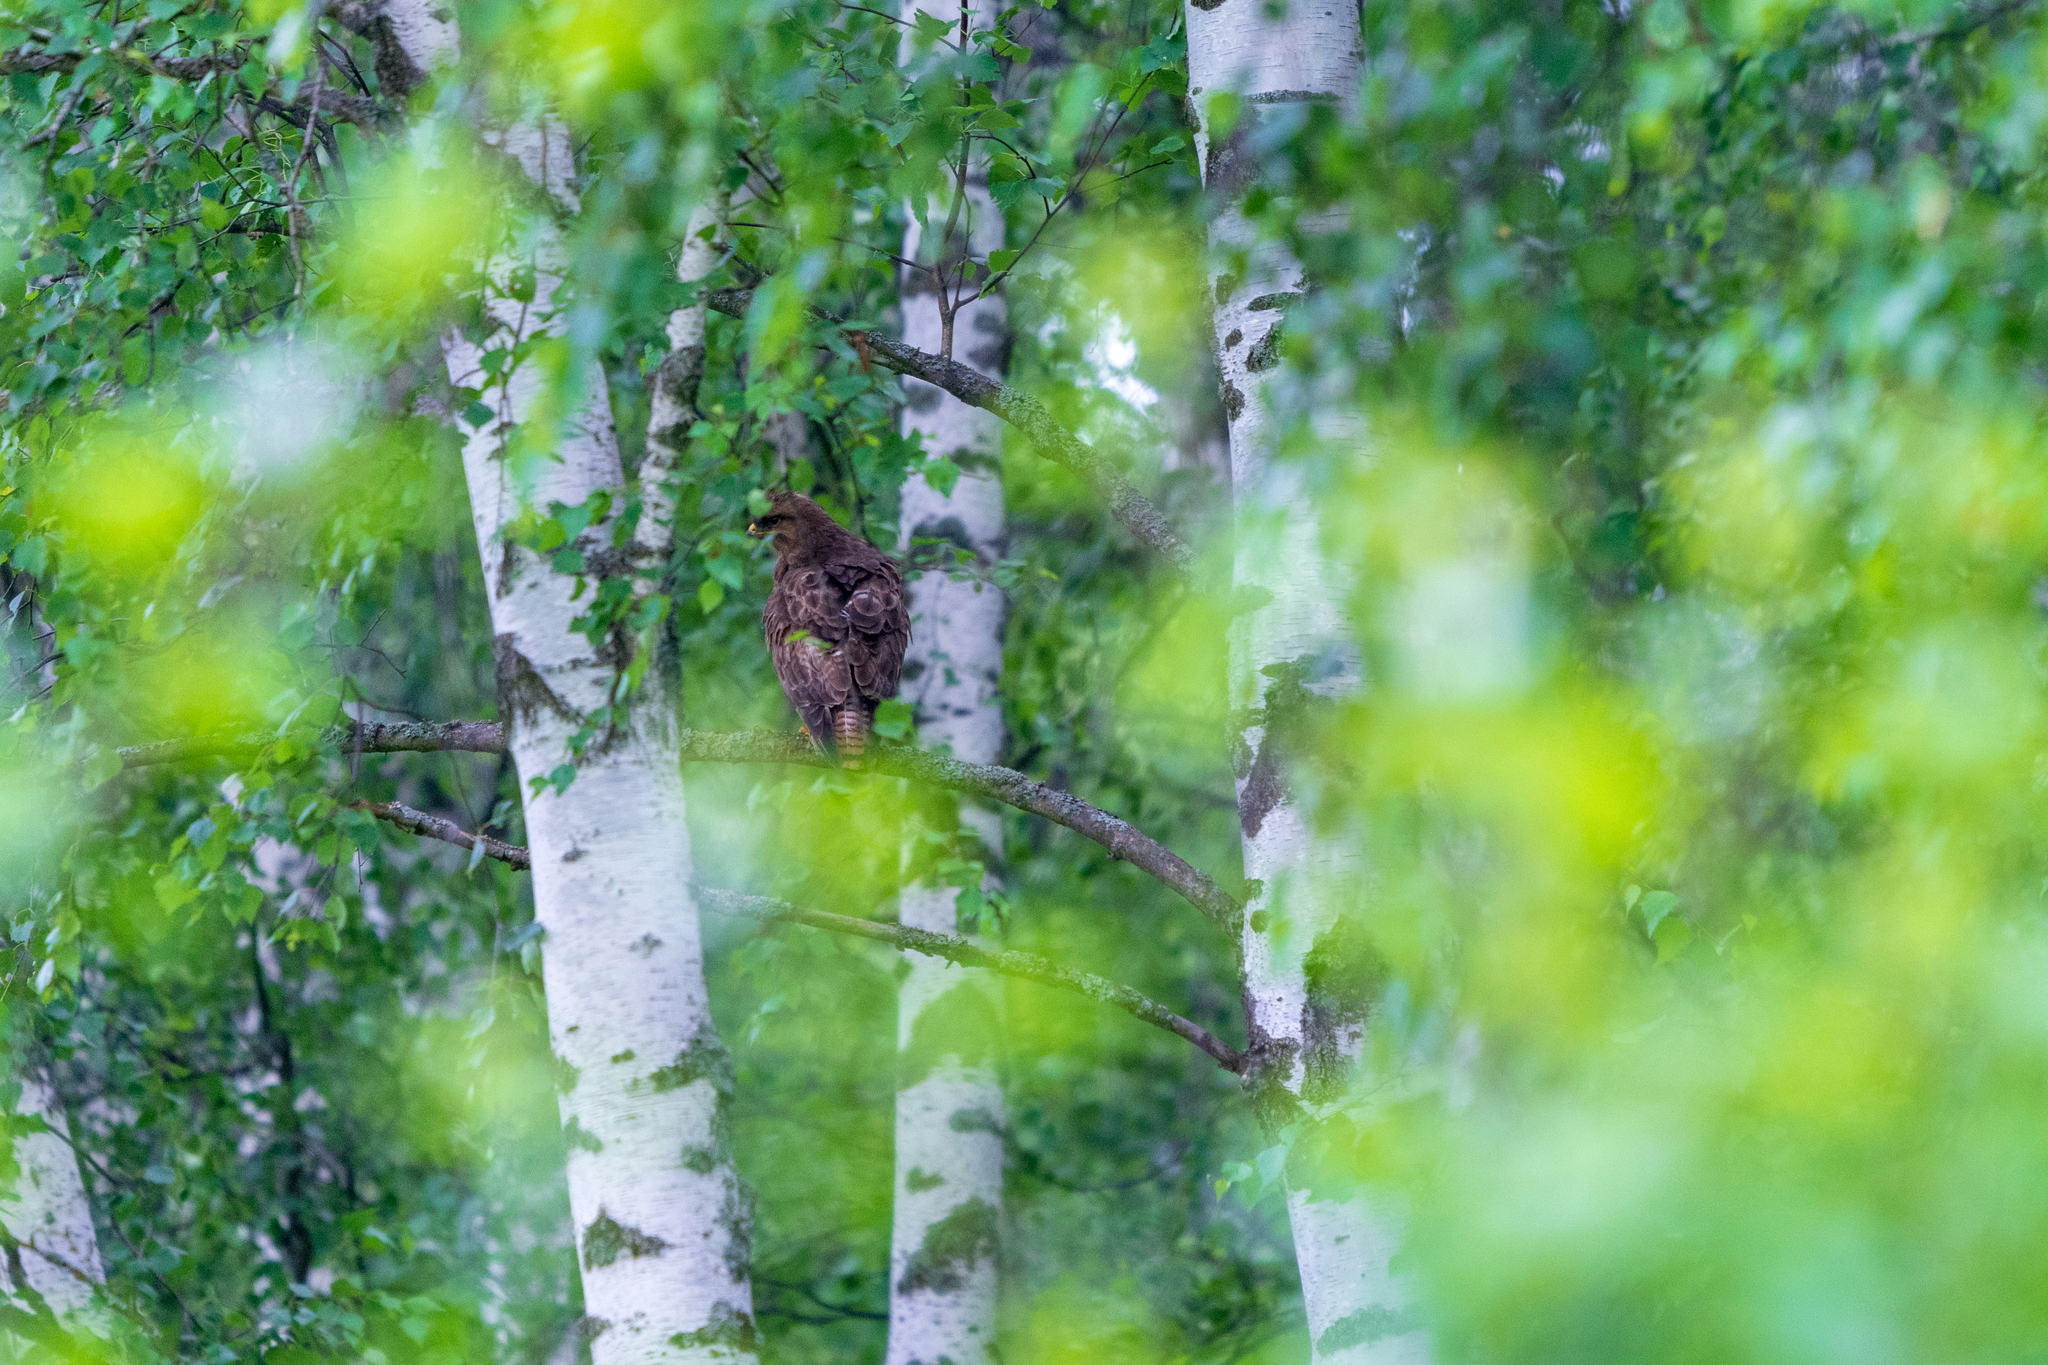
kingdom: Animalia
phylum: Chordata
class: Aves
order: Accipitriformes
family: Accipitridae
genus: Buteo
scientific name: Buteo buteo
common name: Common buzzard
